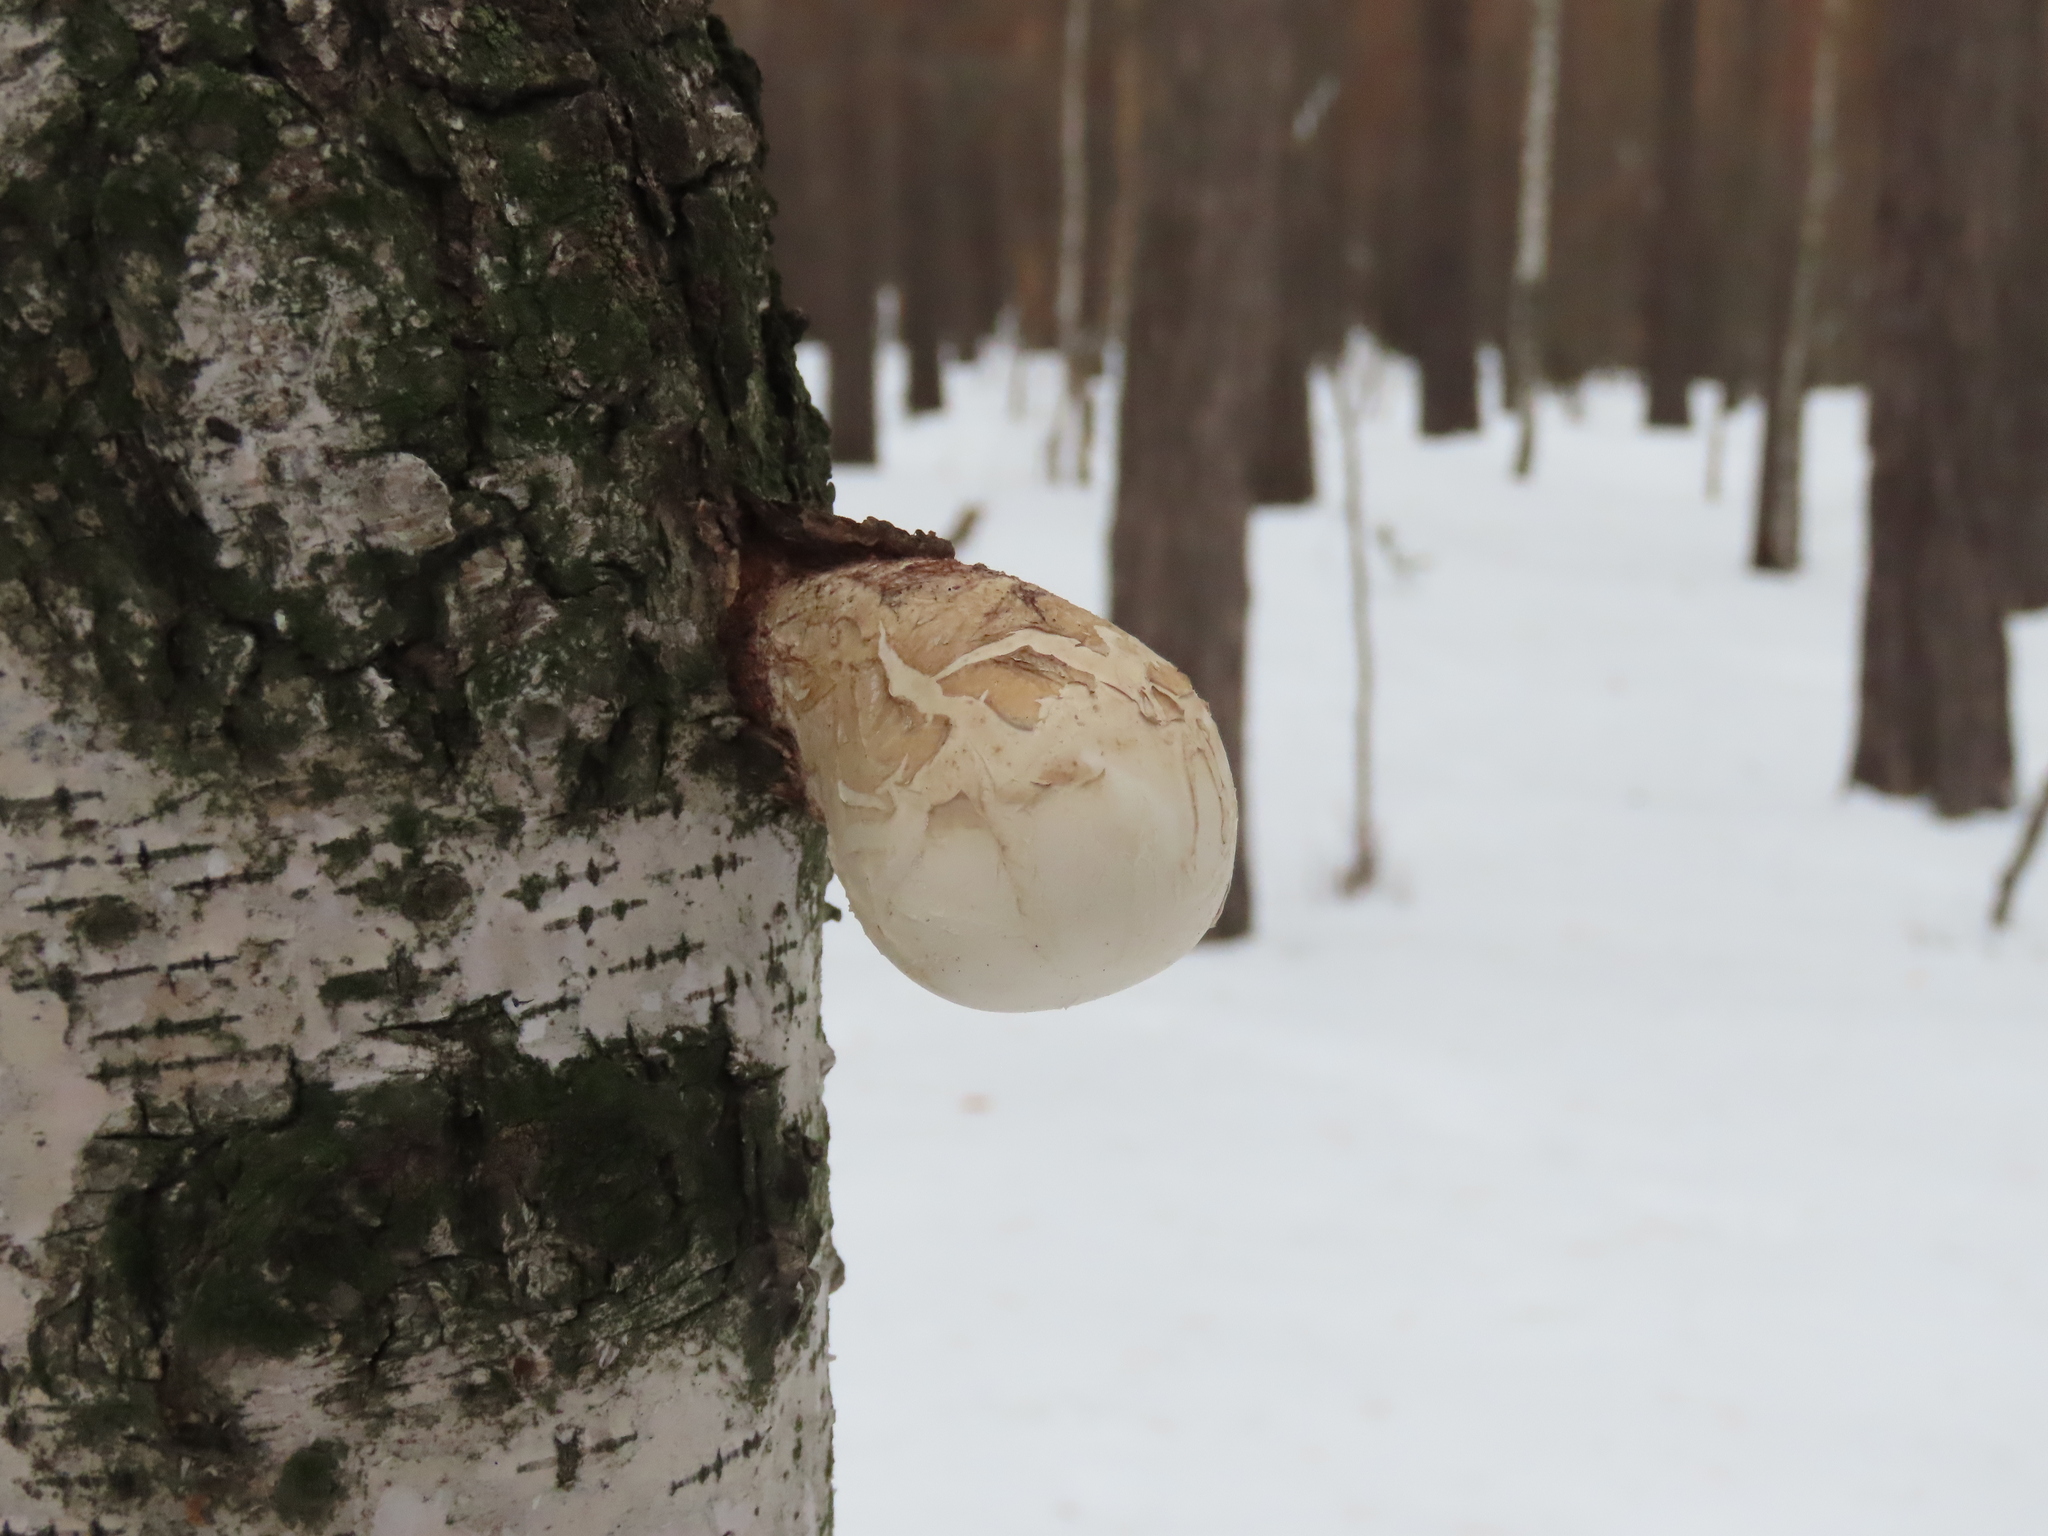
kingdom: Fungi
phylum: Basidiomycota
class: Agaricomycetes
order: Polyporales
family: Fomitopsidaceae
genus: Fomitopsis
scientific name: Fomitopsis betulina
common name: Birch polypore
